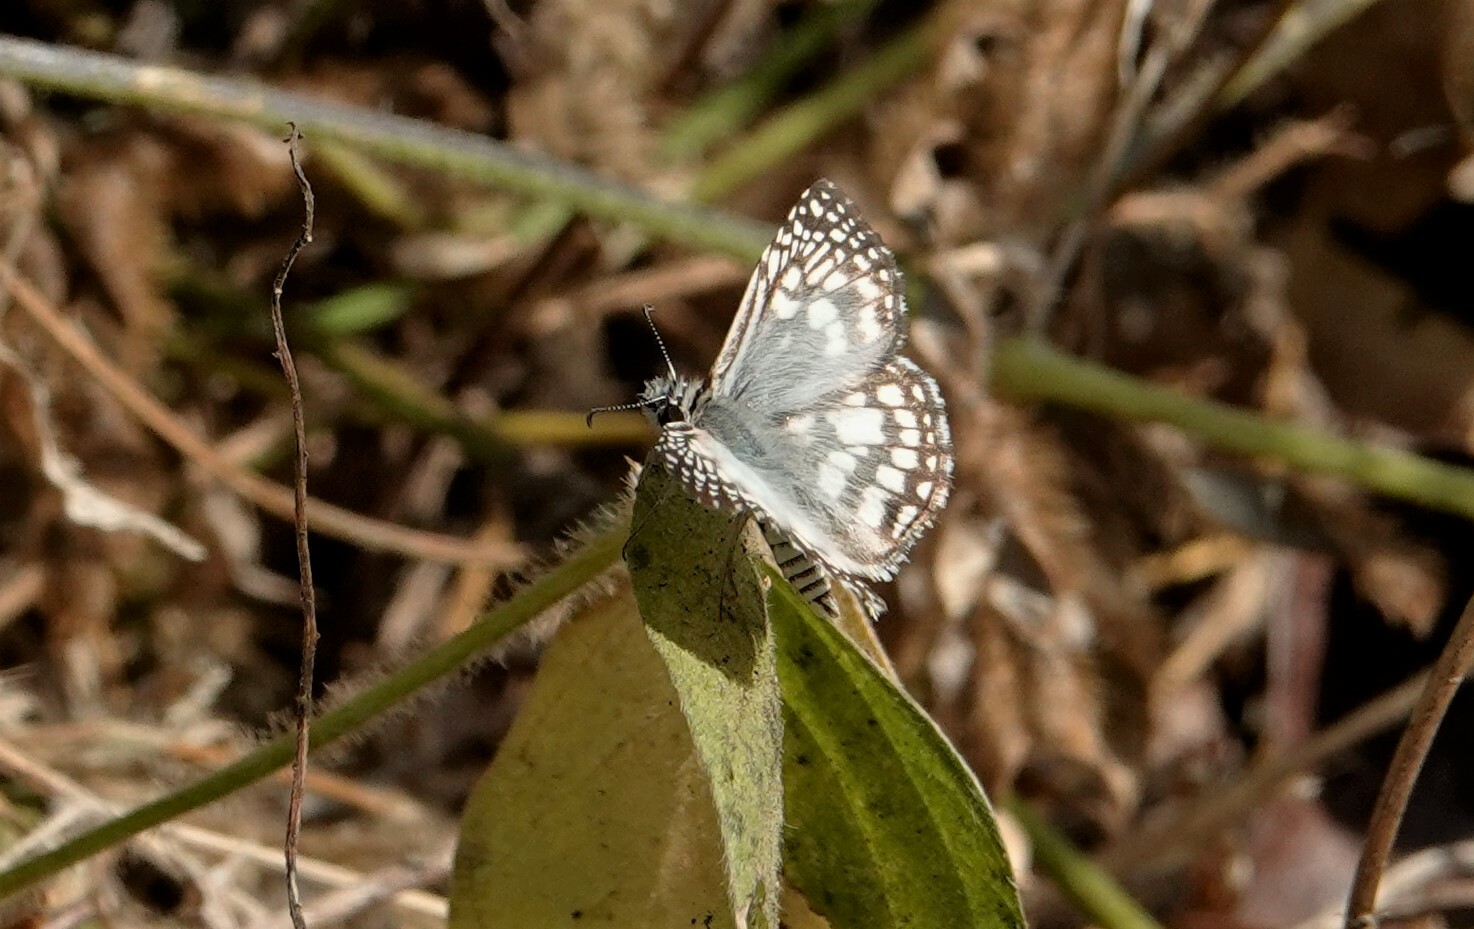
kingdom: Animalia
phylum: Arthropoda
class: Insecta
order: Lepidoptera
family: Hesperiidae
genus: Pyrgus
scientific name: Pyrgus oileus
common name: Tropical checkered-skipper
